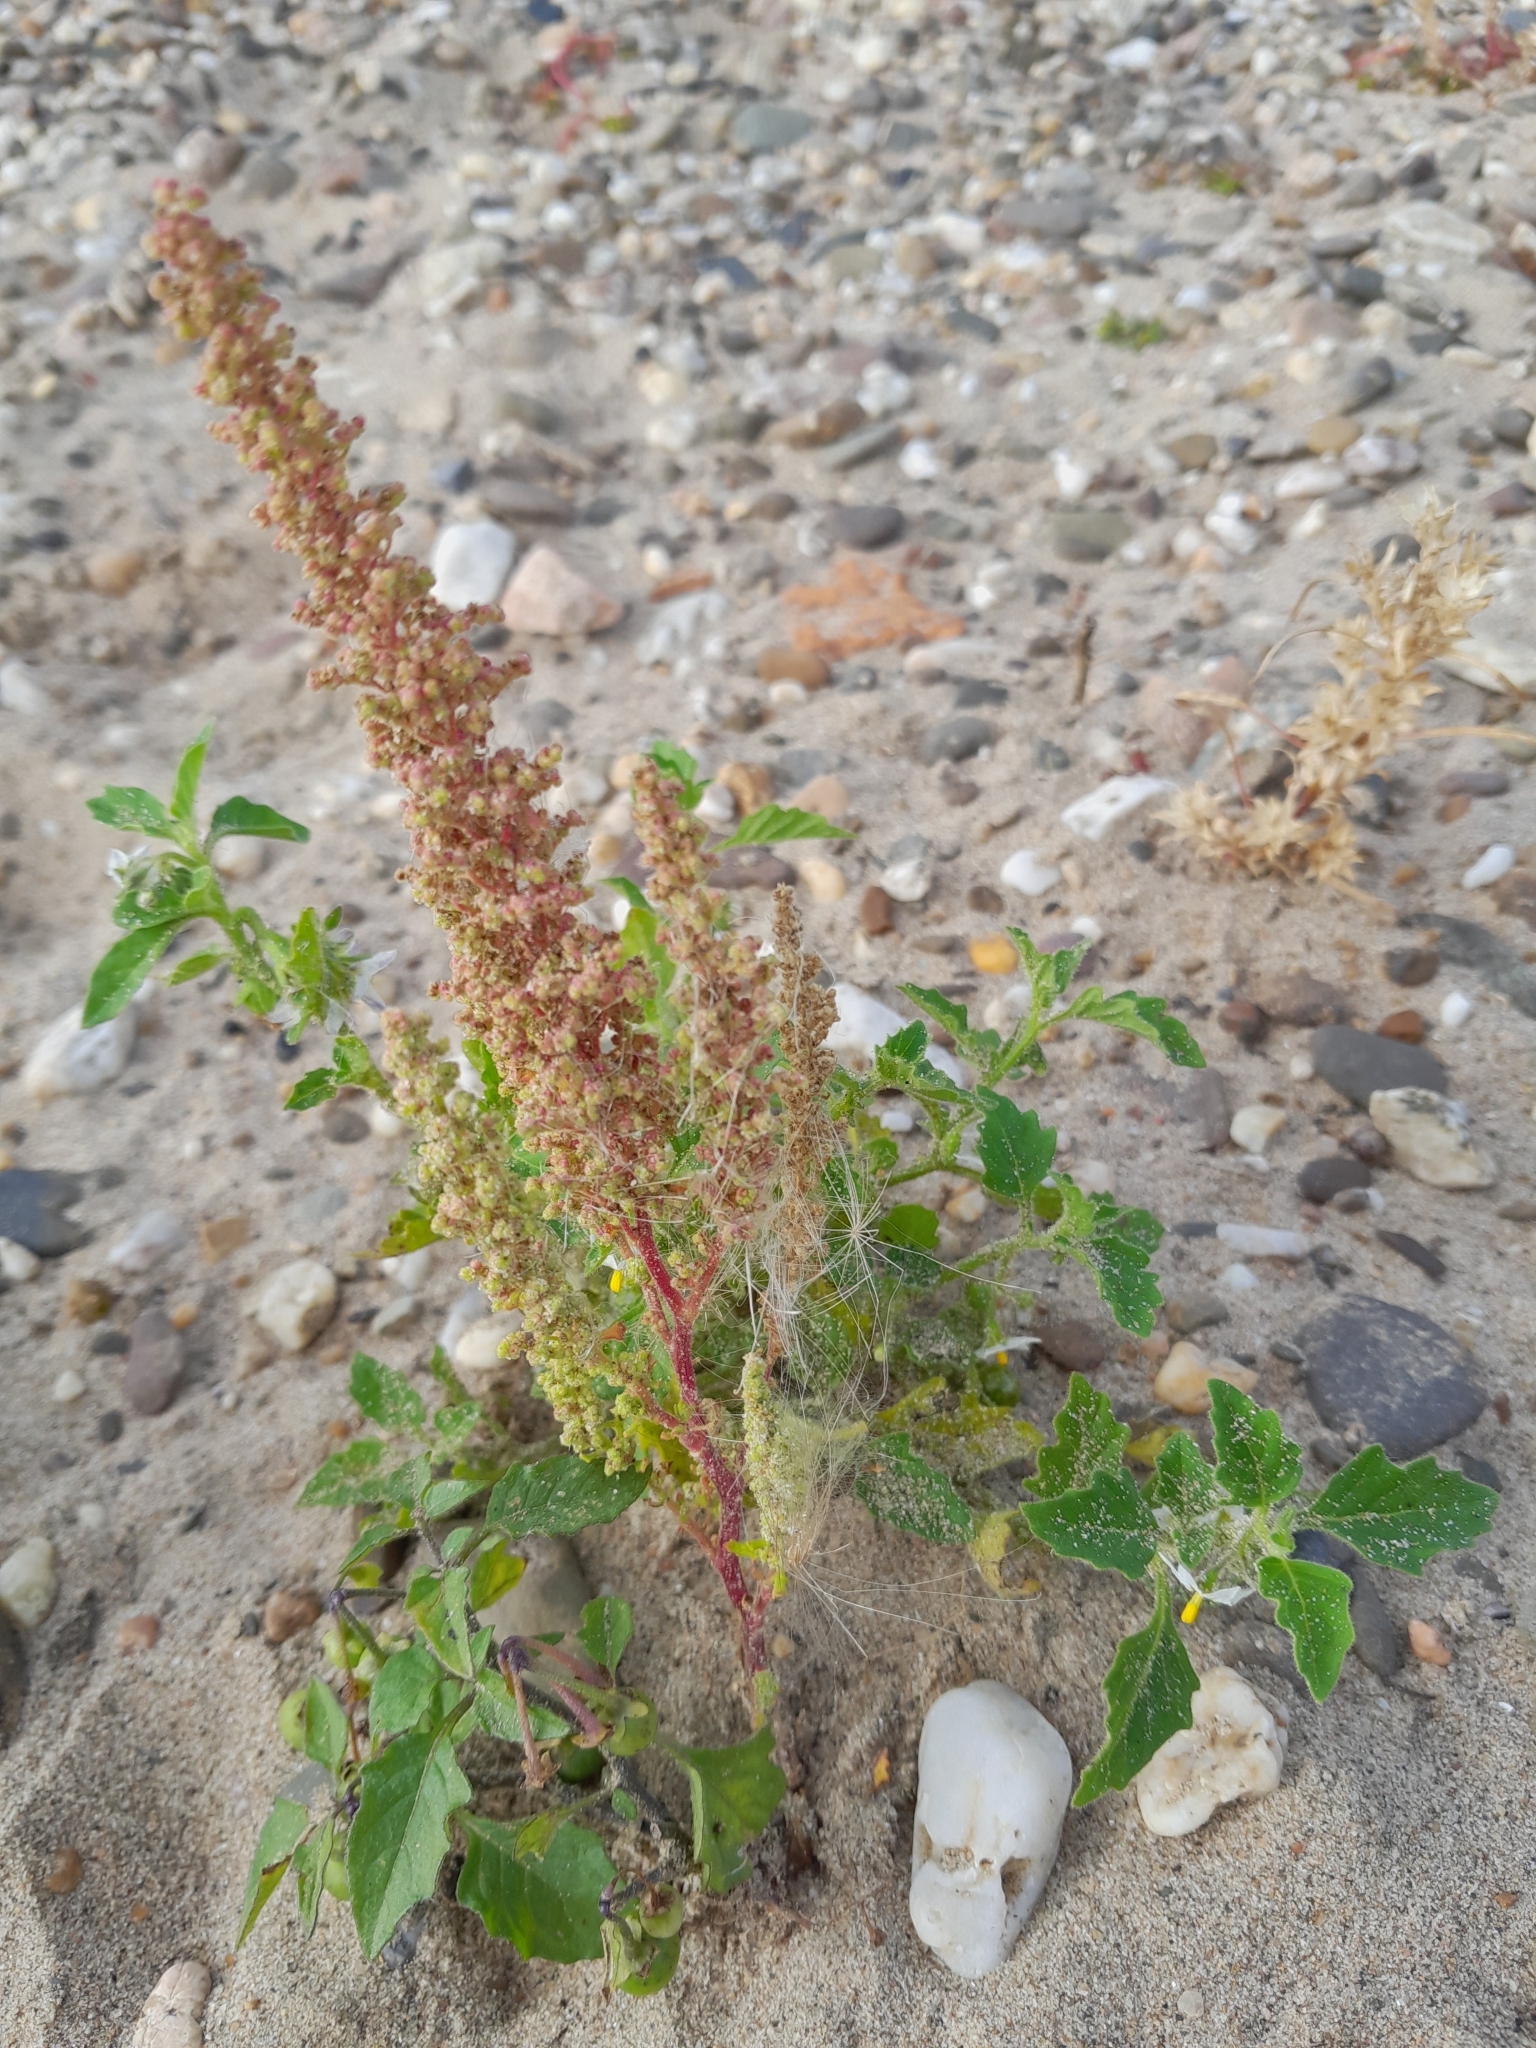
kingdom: Plantae
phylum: Tracheophyta
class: Magnoliopsida
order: Solanales
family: Solanaceae
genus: Solanum
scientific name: Solanum nitidibaccatum
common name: Hairy nightshade
